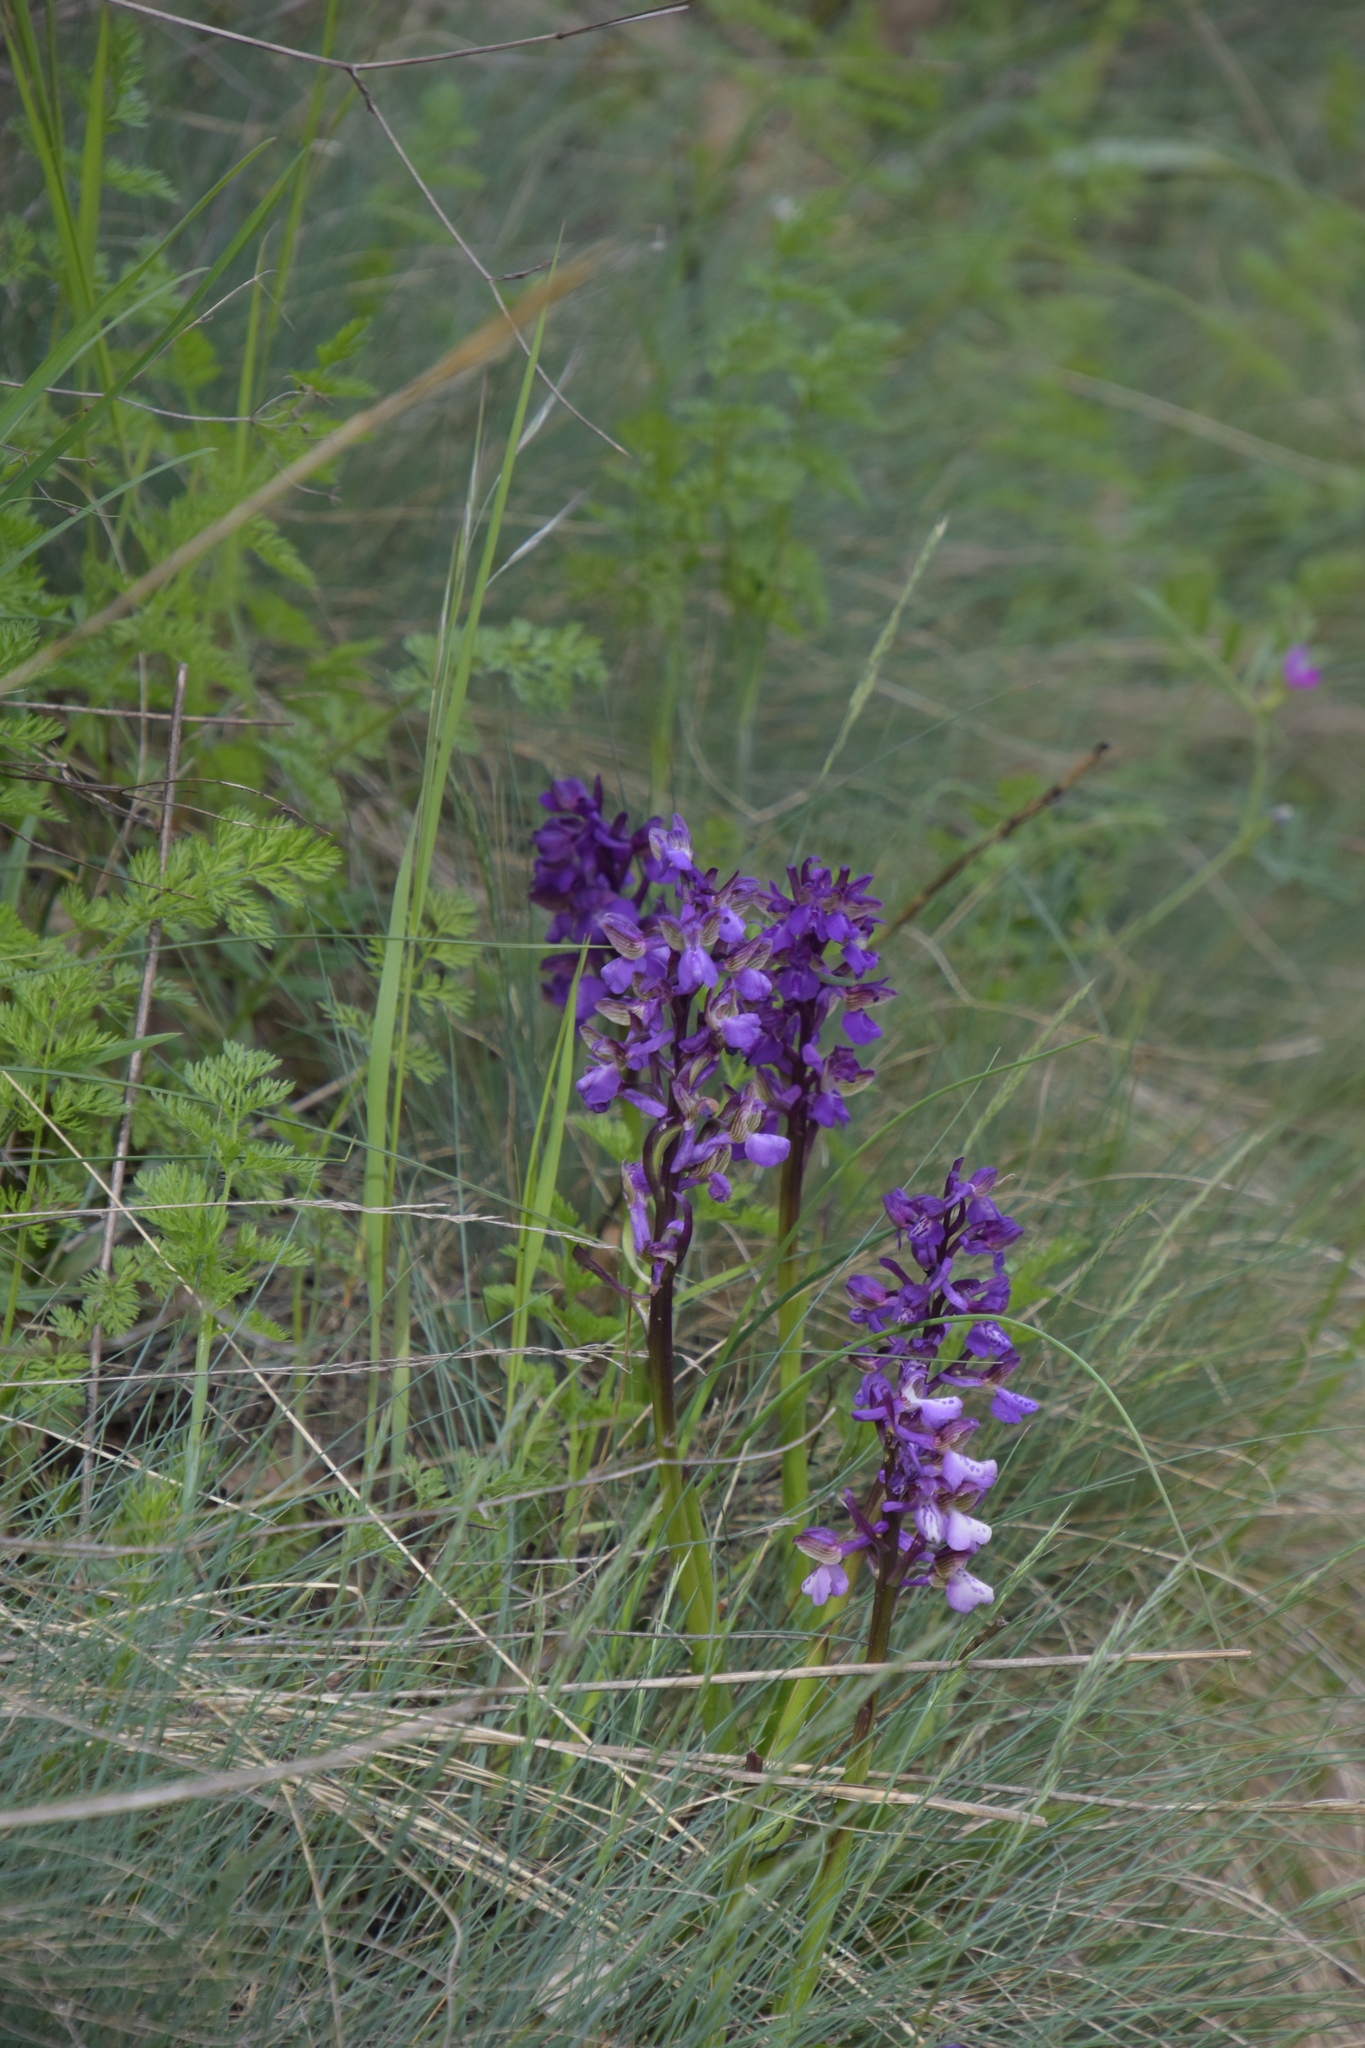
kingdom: Plantae
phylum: Tracheophyta
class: Liliopsida
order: Asparagales
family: Orchidaceae
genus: Anacamptis
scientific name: Anacamptis morio
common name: Green-winged orchid
